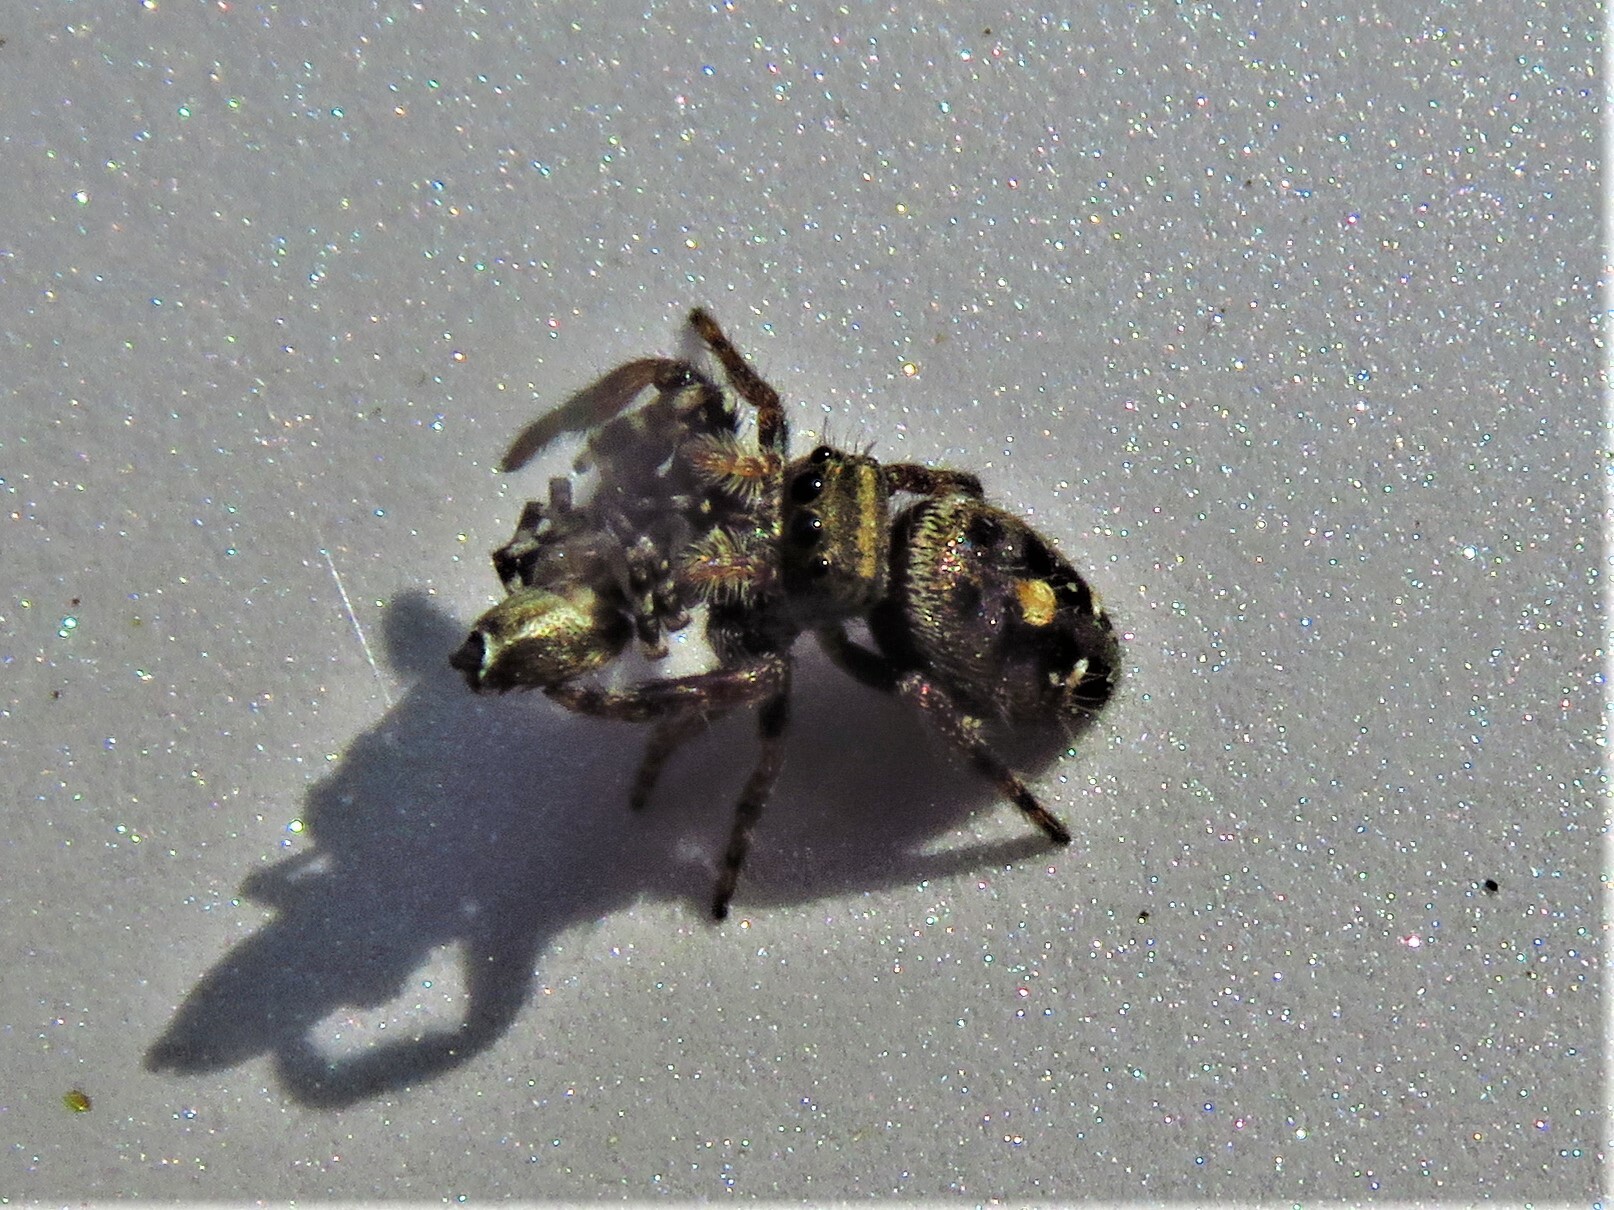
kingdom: Animalia
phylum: Arthropoda
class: Arachnida
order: Araneae
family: Salticidae
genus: Phidippus
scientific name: Phidippus audax
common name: Bold jumper
